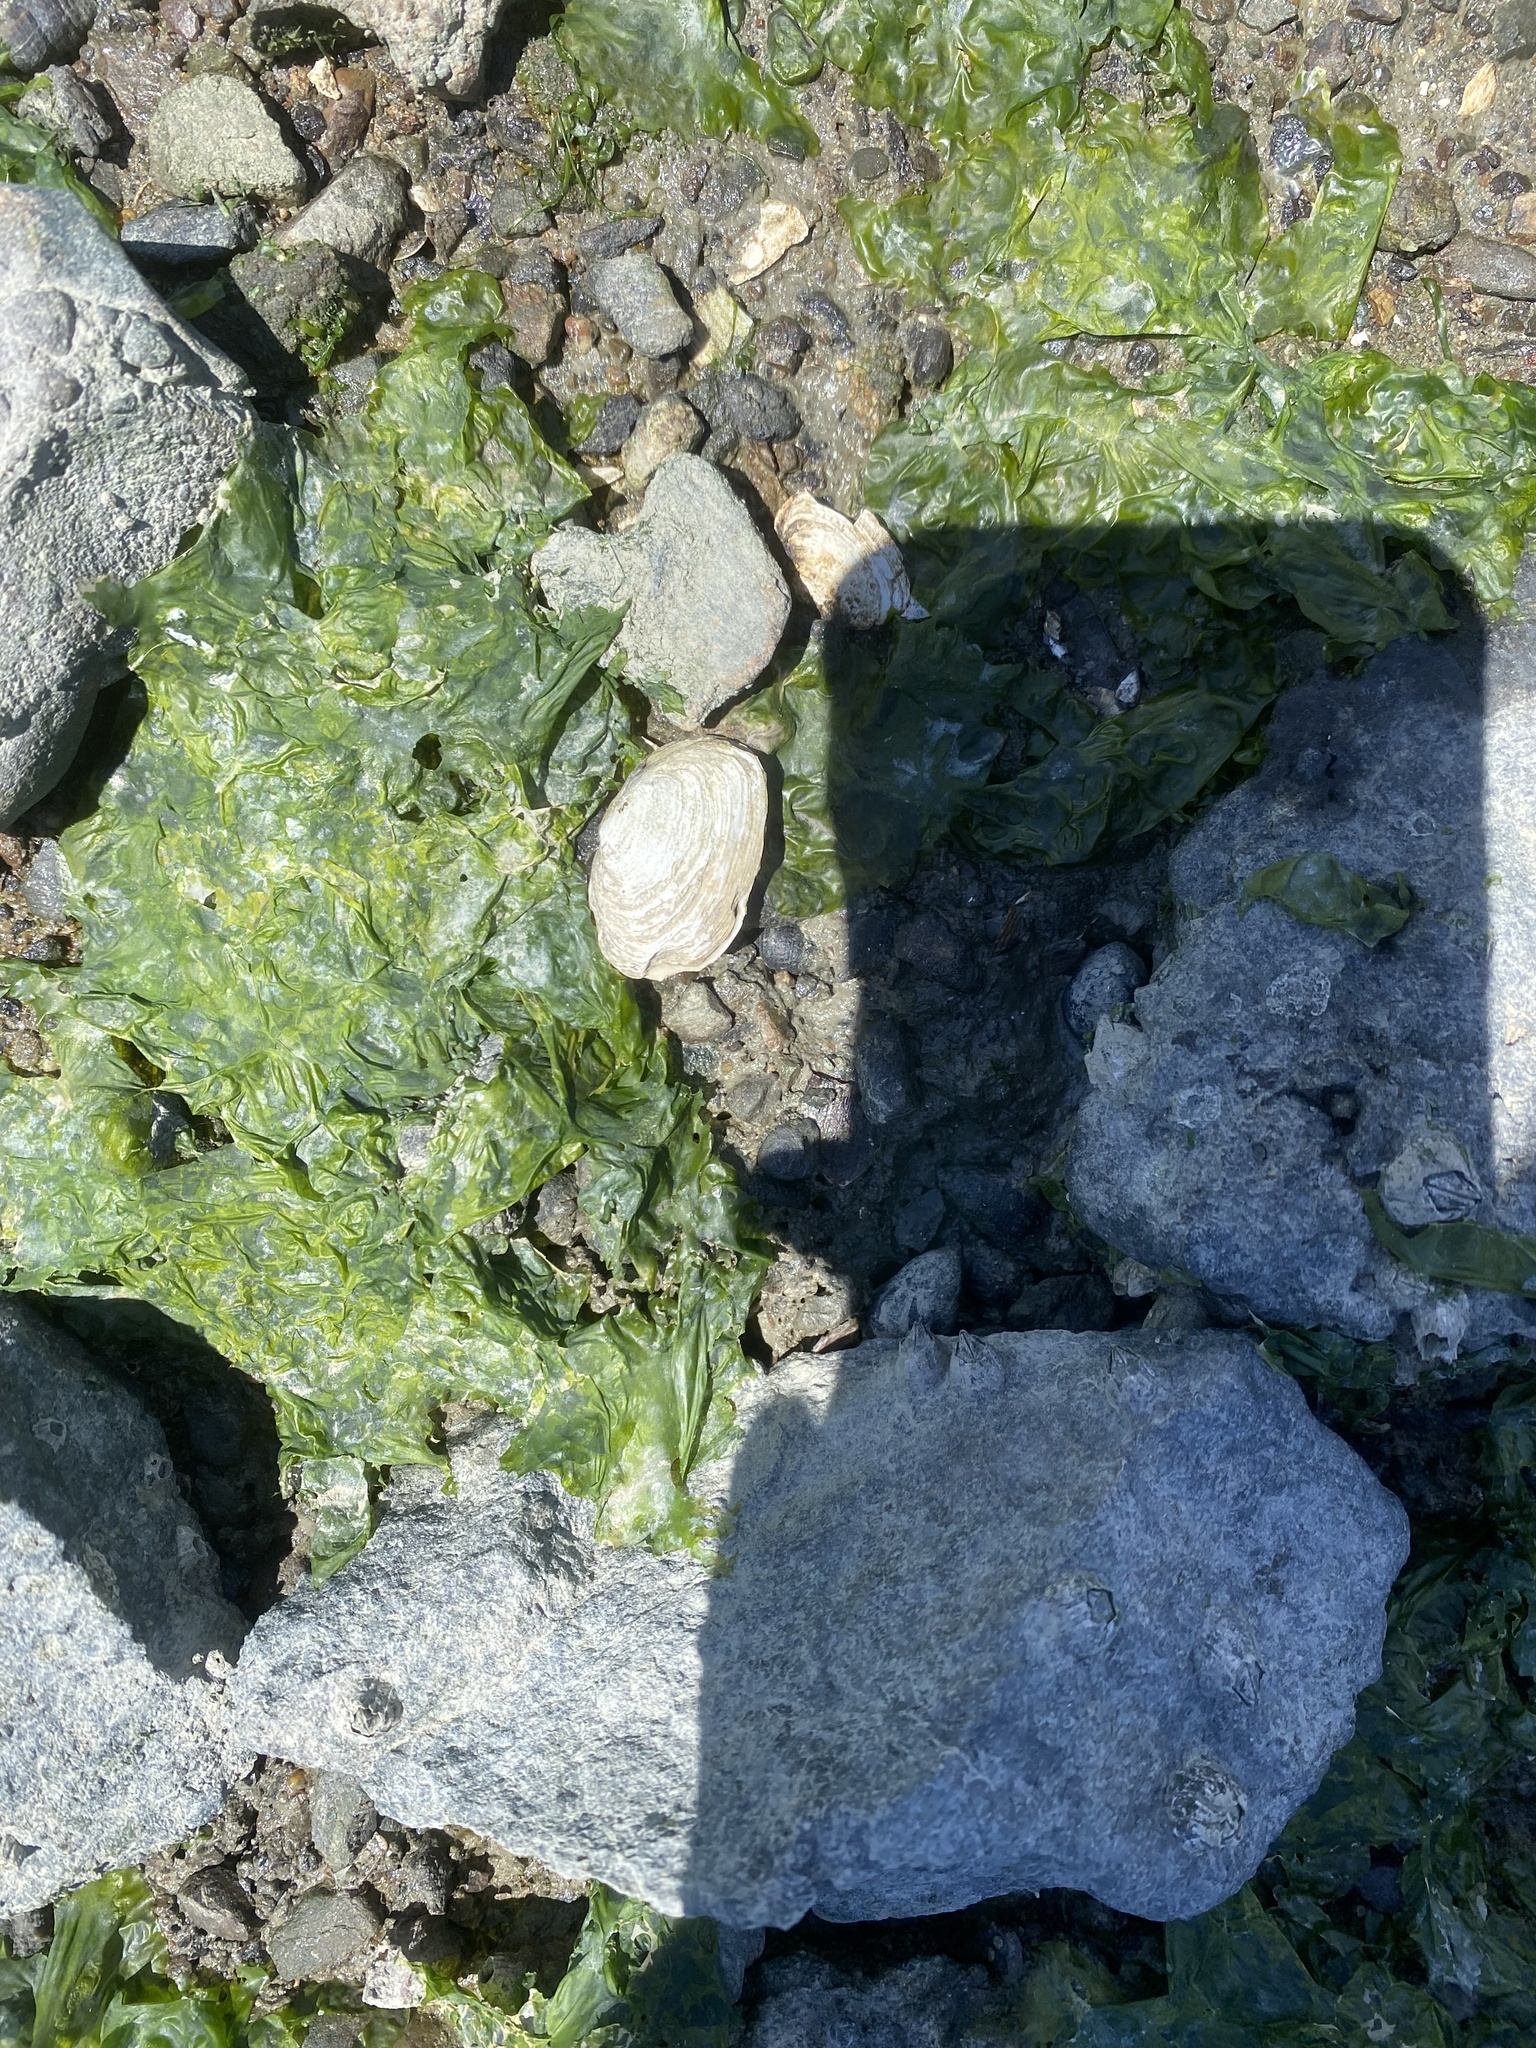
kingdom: Animalia
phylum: Mollusca
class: Bivalvia
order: Myida
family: Myidae
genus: Mya
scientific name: Mya arenaria
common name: Soft-shelled clam
